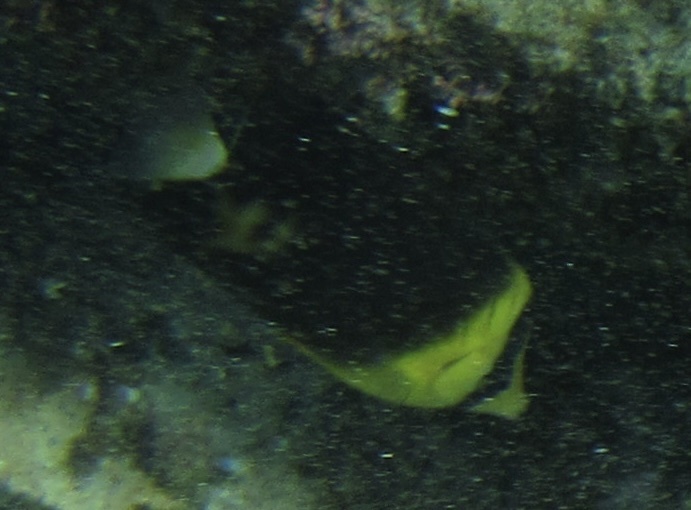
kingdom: Animalia
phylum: Chordata
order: Perciformes
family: Chaetodontidae
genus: Chaetodon
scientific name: Chaetodon blackburnii
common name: Blackburn's butterflyfish
